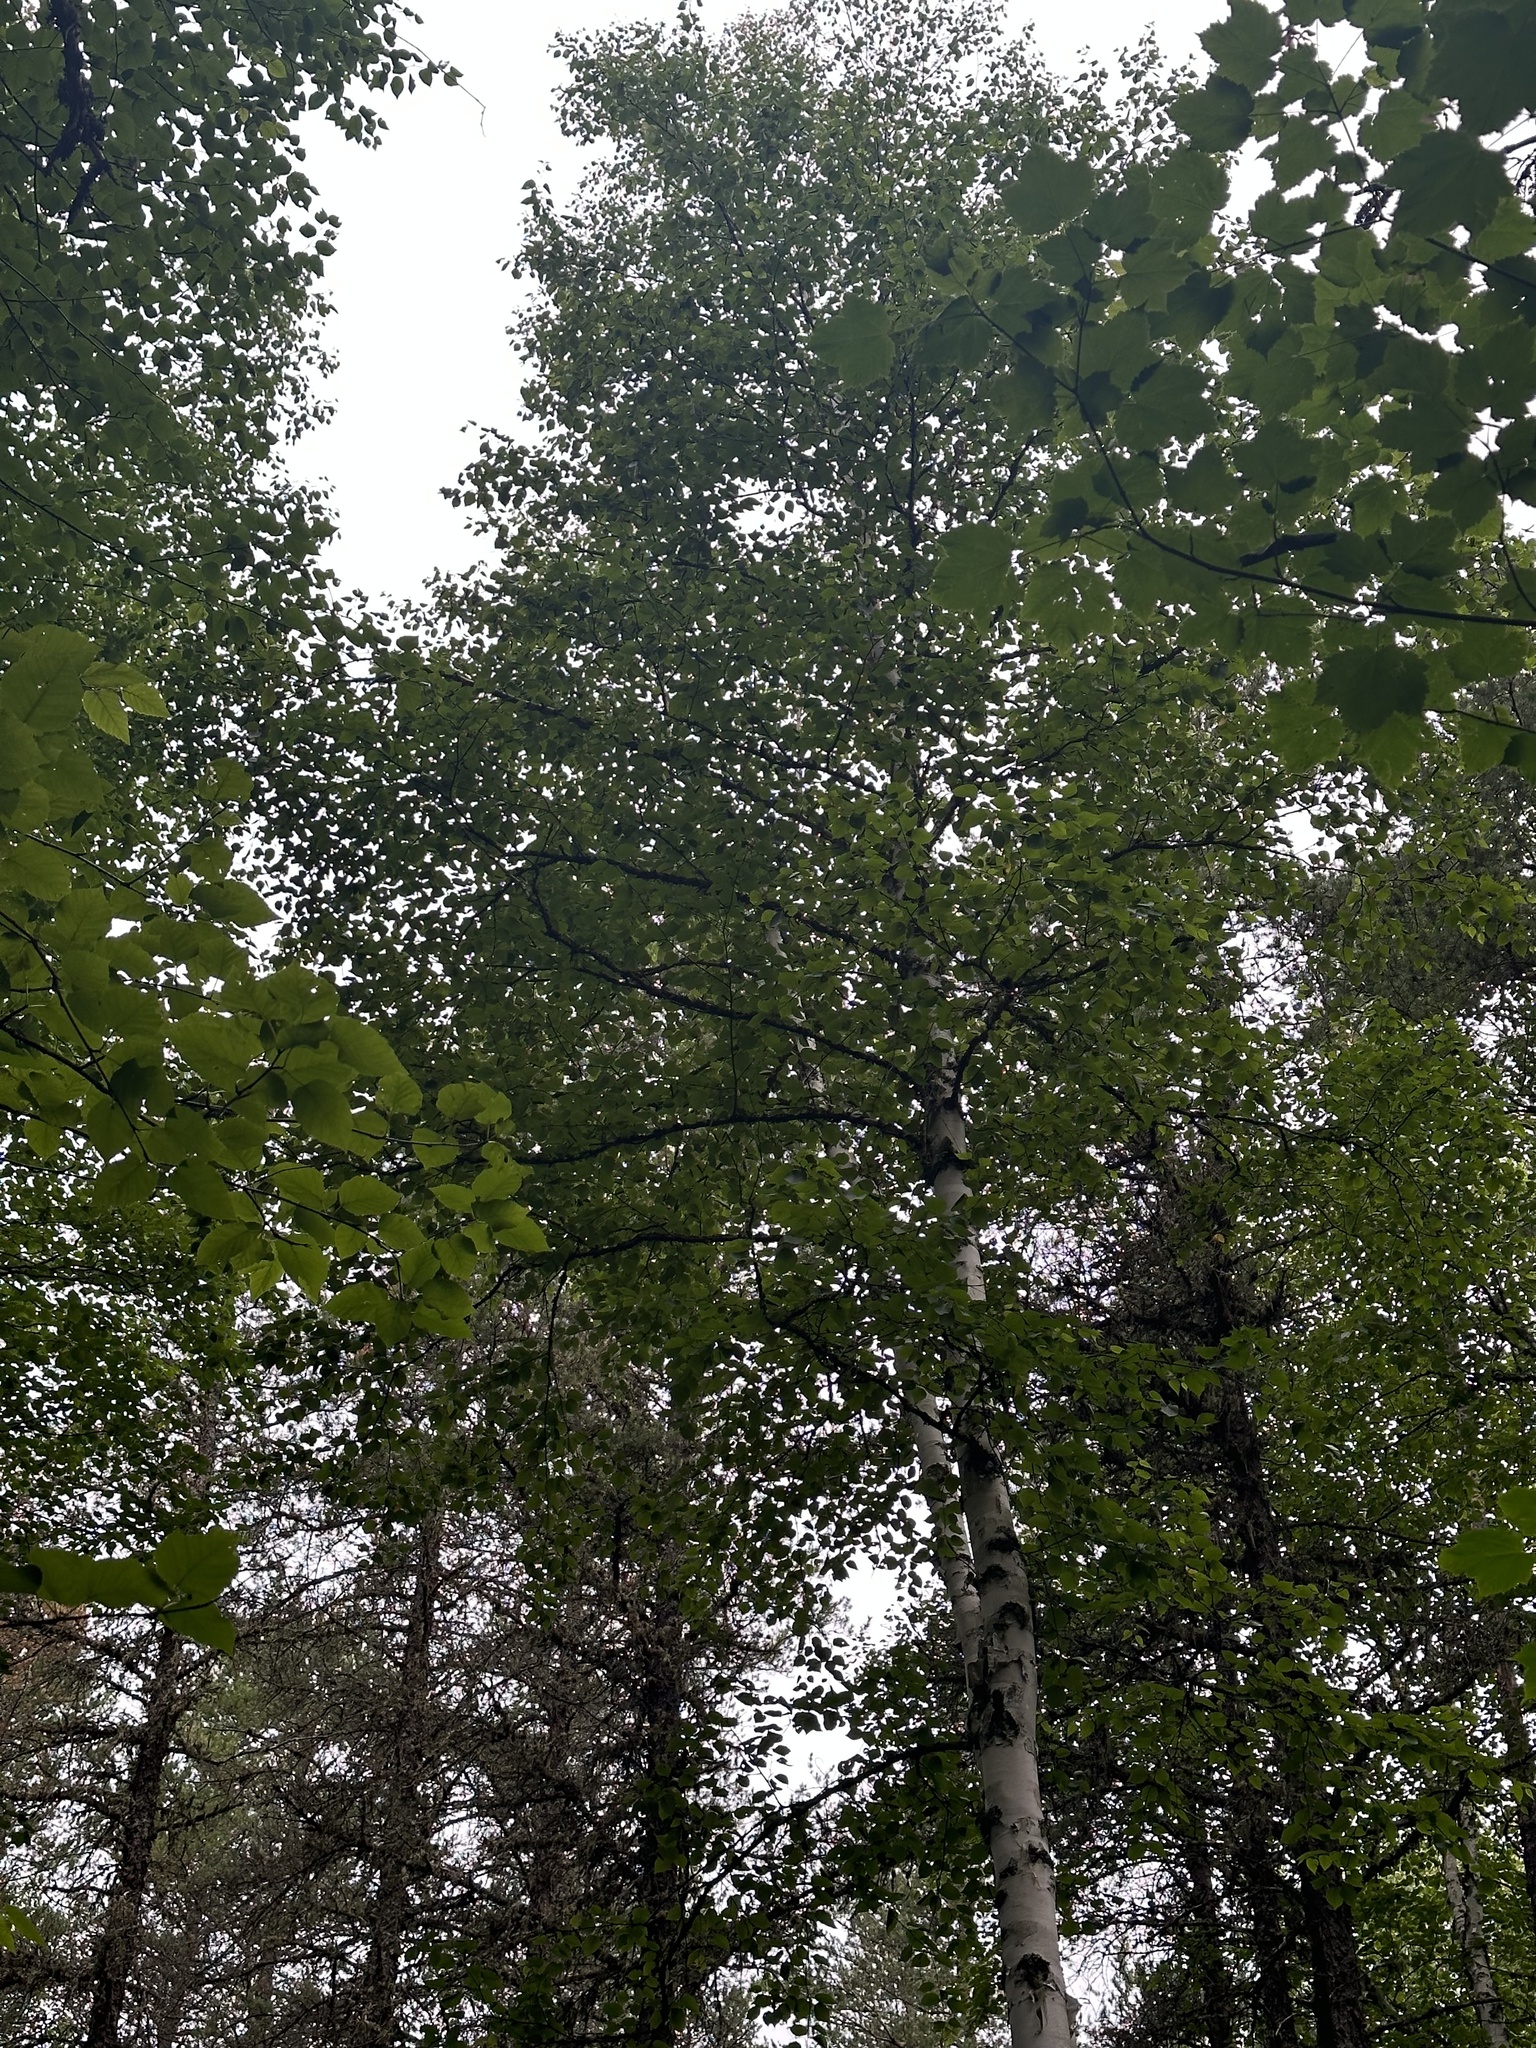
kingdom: Plantae
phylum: Tracheophyta
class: Pinopsida
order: Pinales
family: Pinaceae
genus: Pinus
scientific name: Pinus banksiana
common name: Jack pine
